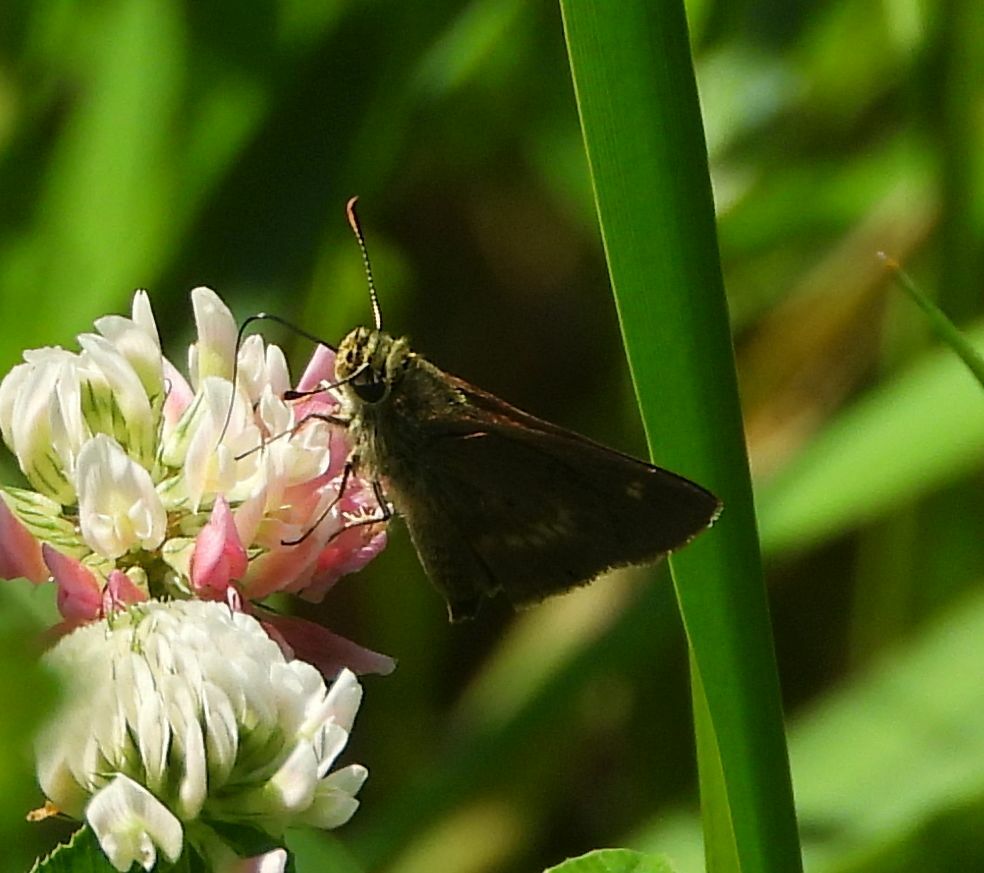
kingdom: Animalia
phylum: Arthropoda
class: Insecta
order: Lepidoptera
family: Hesperiidae
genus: Polites
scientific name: Polites egeremet
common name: Northern broken-dash
